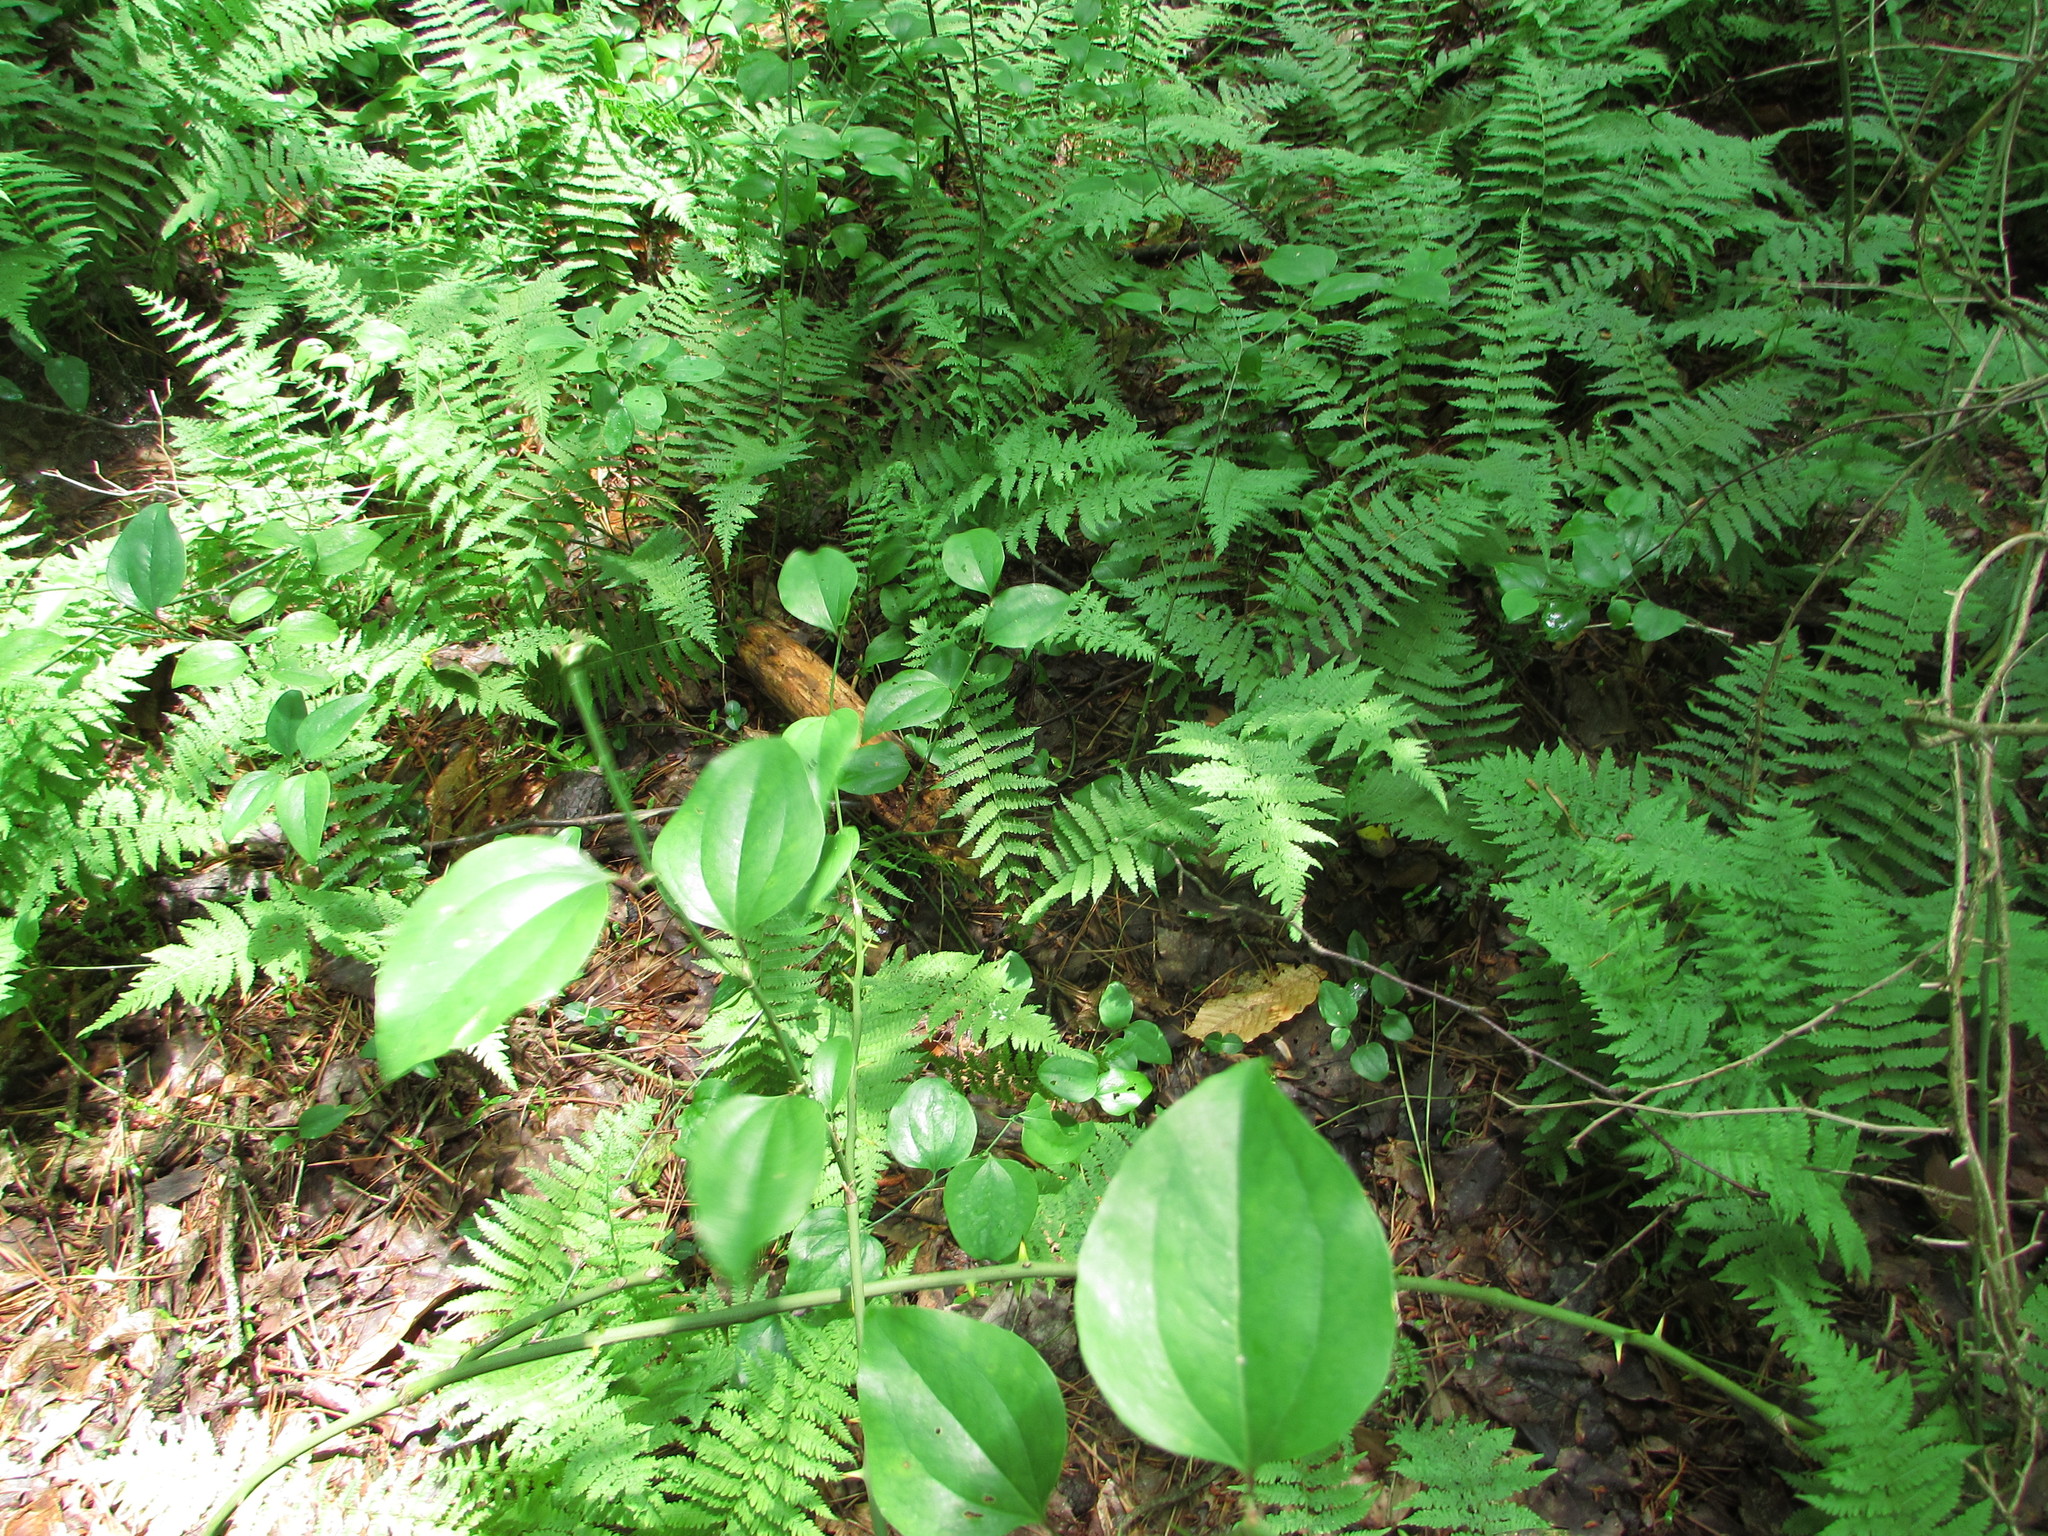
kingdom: Plantae
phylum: Tracheophyta
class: Polypodiopsida
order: Polypodiales
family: Thelypteridaceae
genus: Amauropelta
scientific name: Amauropelta noveboracensis
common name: New york fern
